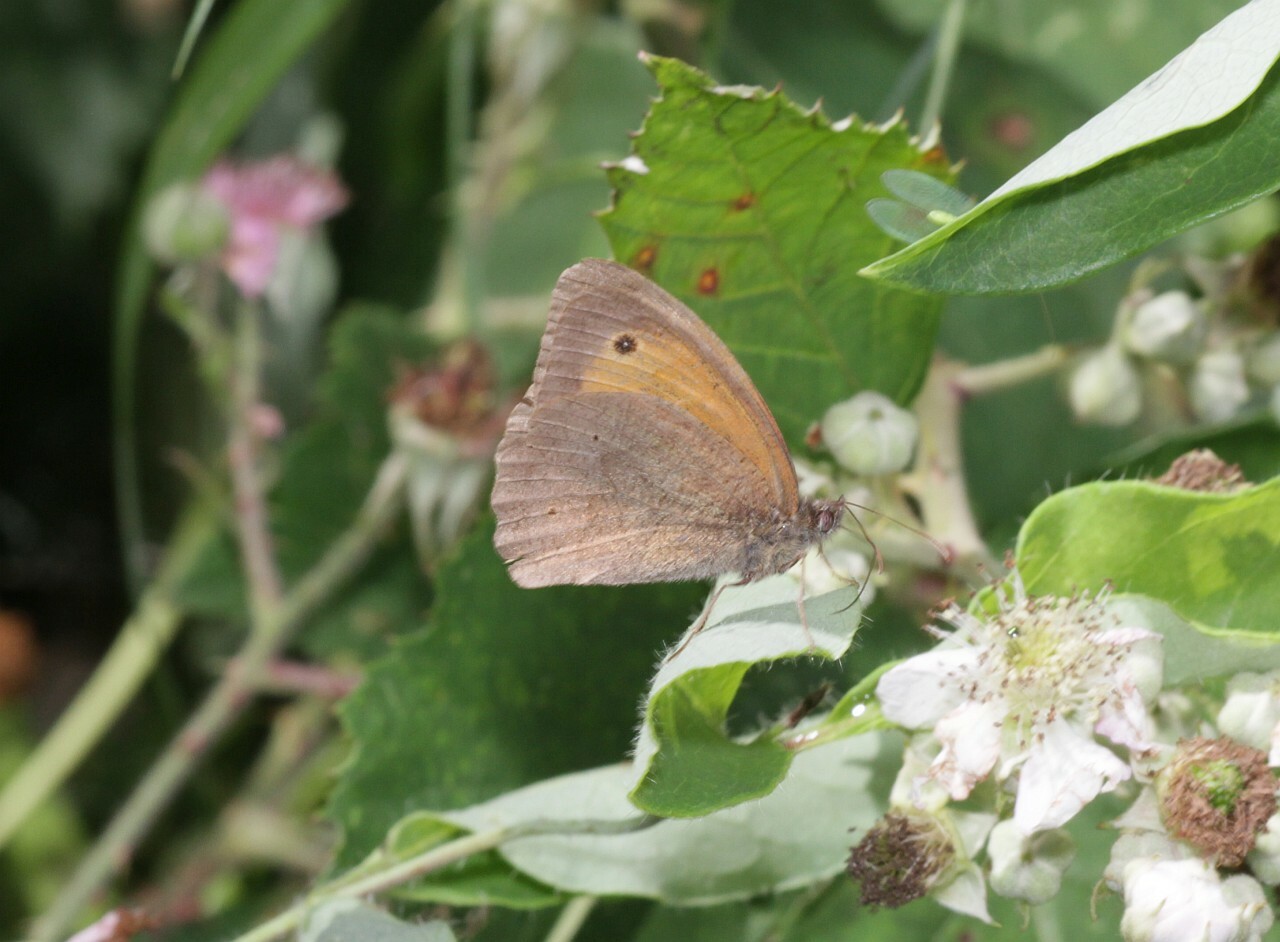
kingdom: Animalia
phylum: Arthropoda
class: Insecta
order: Lepidoptera
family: Nymphalidae
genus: Maniola
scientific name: Maniola jurtina
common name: Meadow brown
